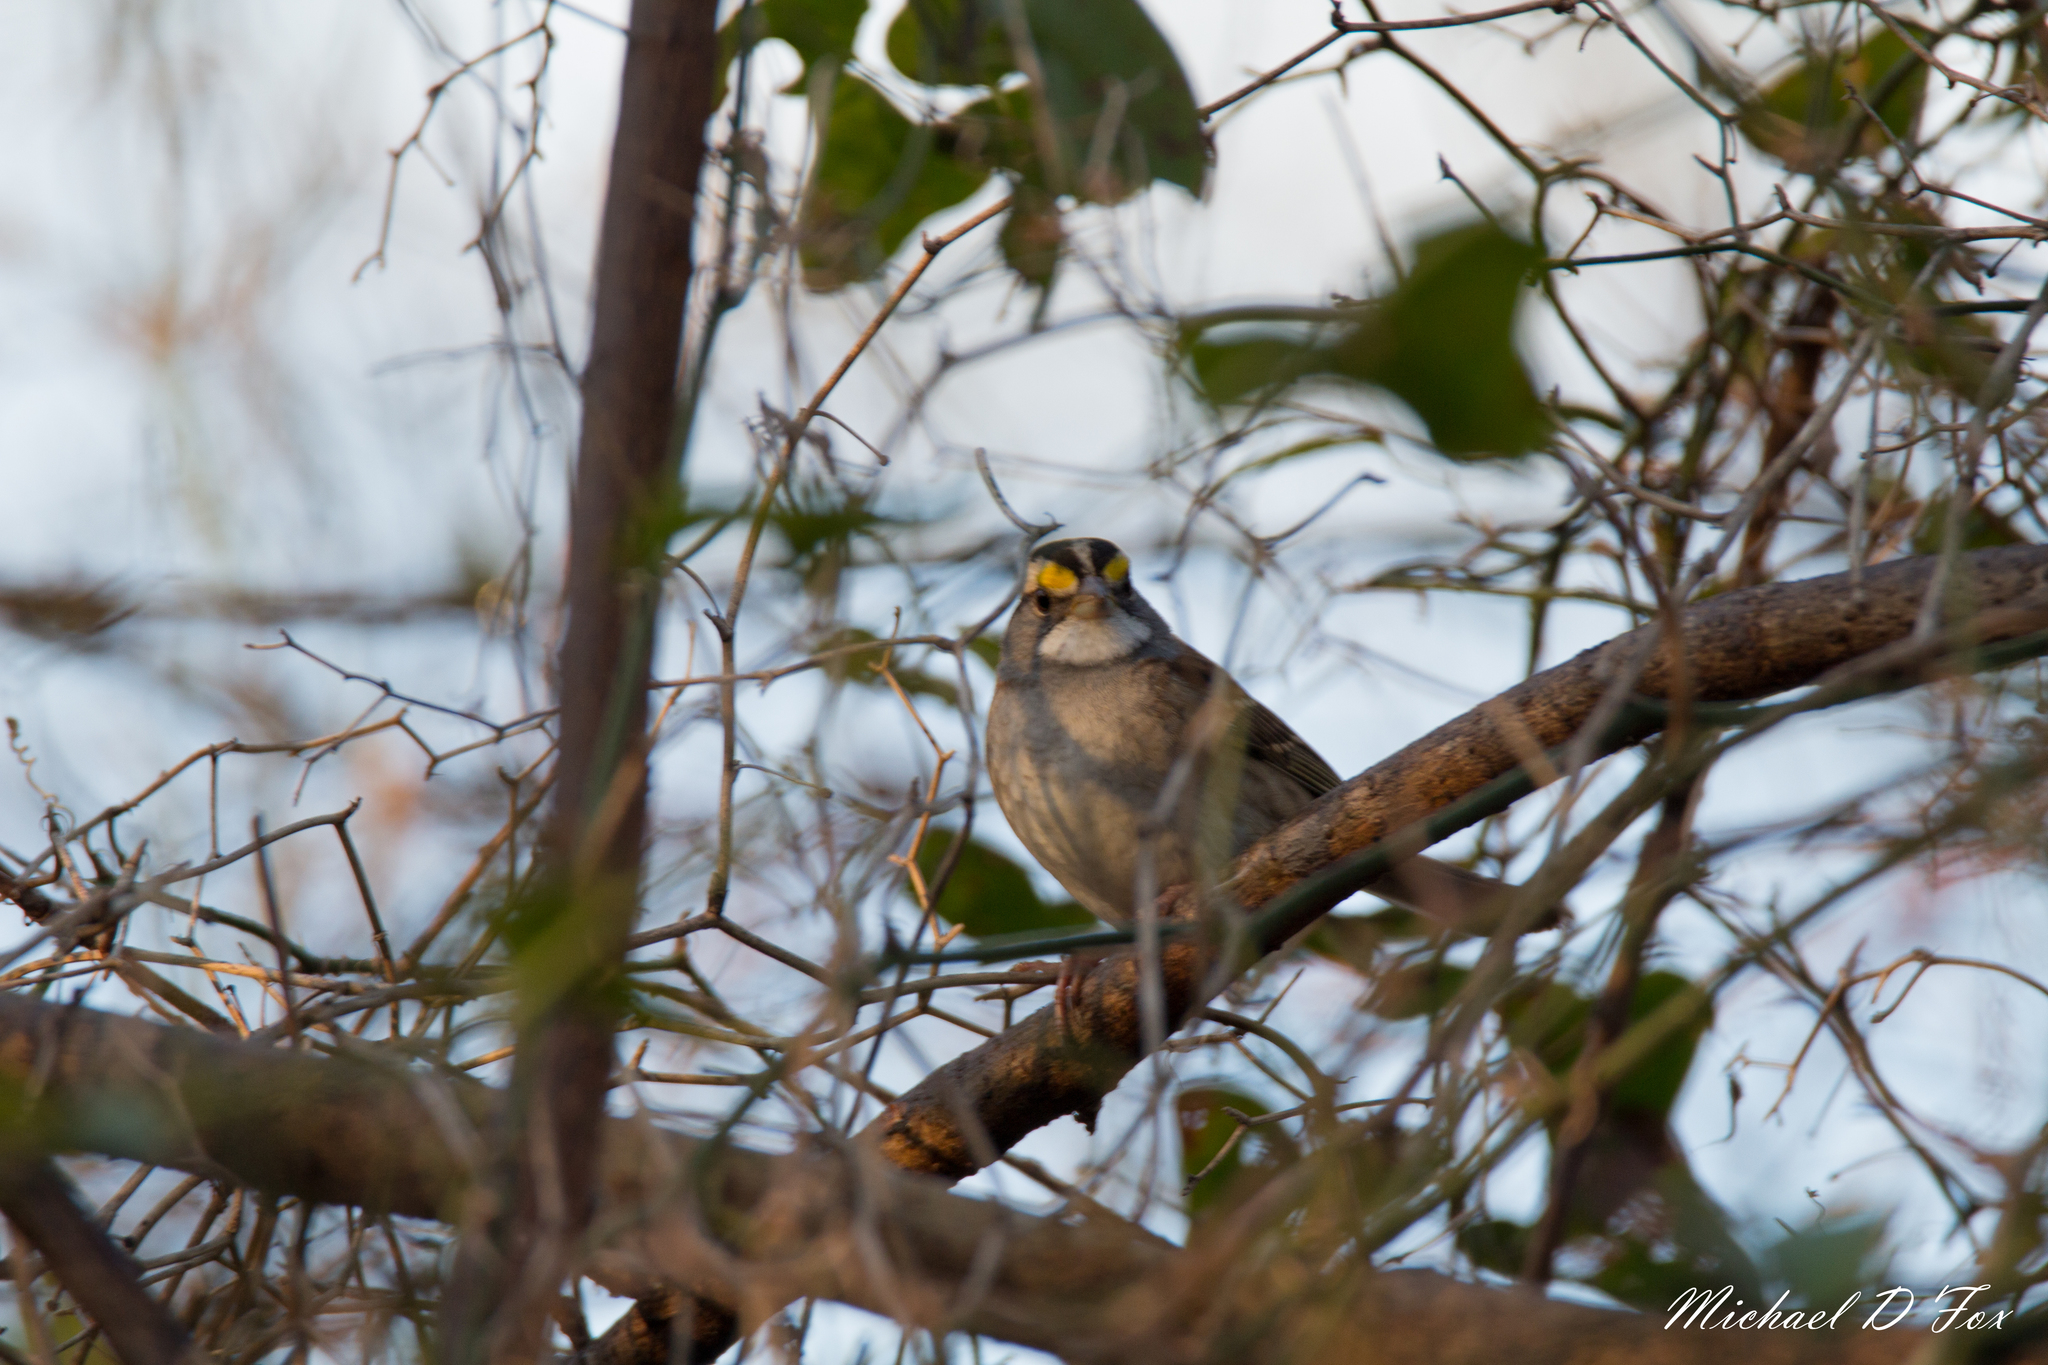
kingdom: Animalia
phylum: Chordata
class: Aves
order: Passeriformes
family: Passerellidae
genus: Zonotrichia
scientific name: Zonotrichia albicollis
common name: White-throated sparrow
